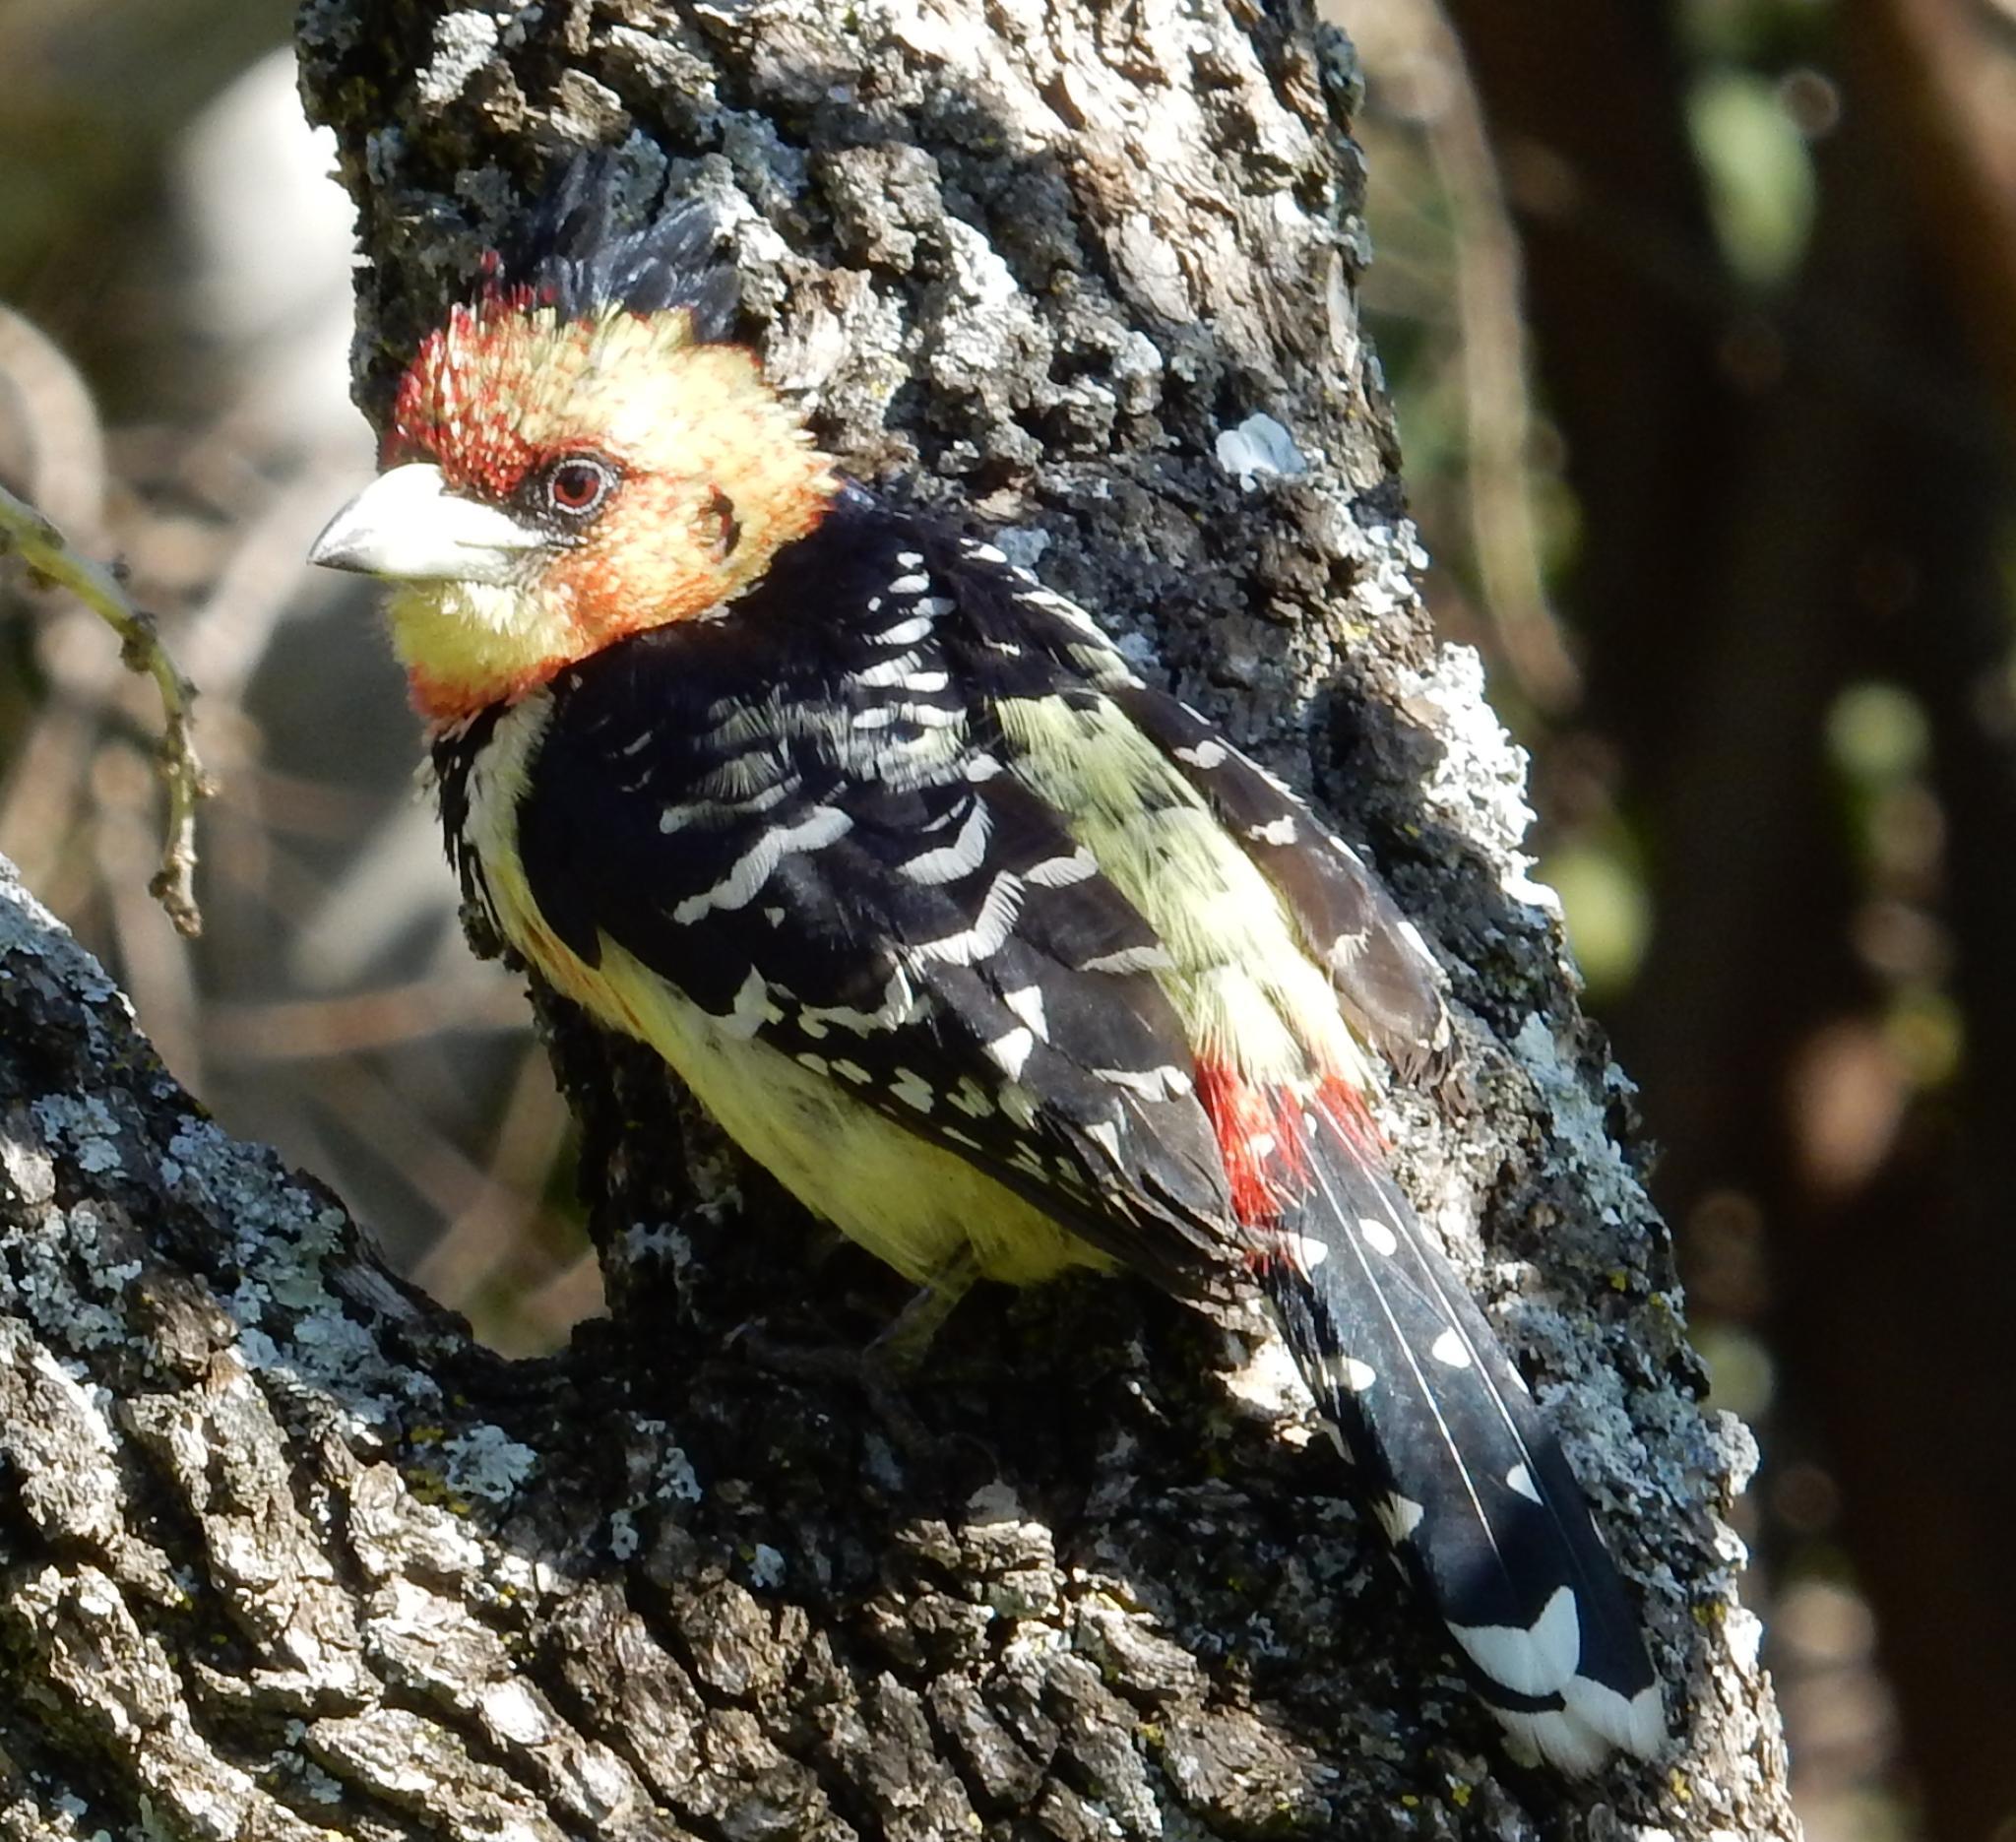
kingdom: Animalia
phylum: Chordata
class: Aves
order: Piciformes
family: Lybiidae
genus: Trachyphonus
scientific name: Trachyphonus vaillantii
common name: Crested barbet
